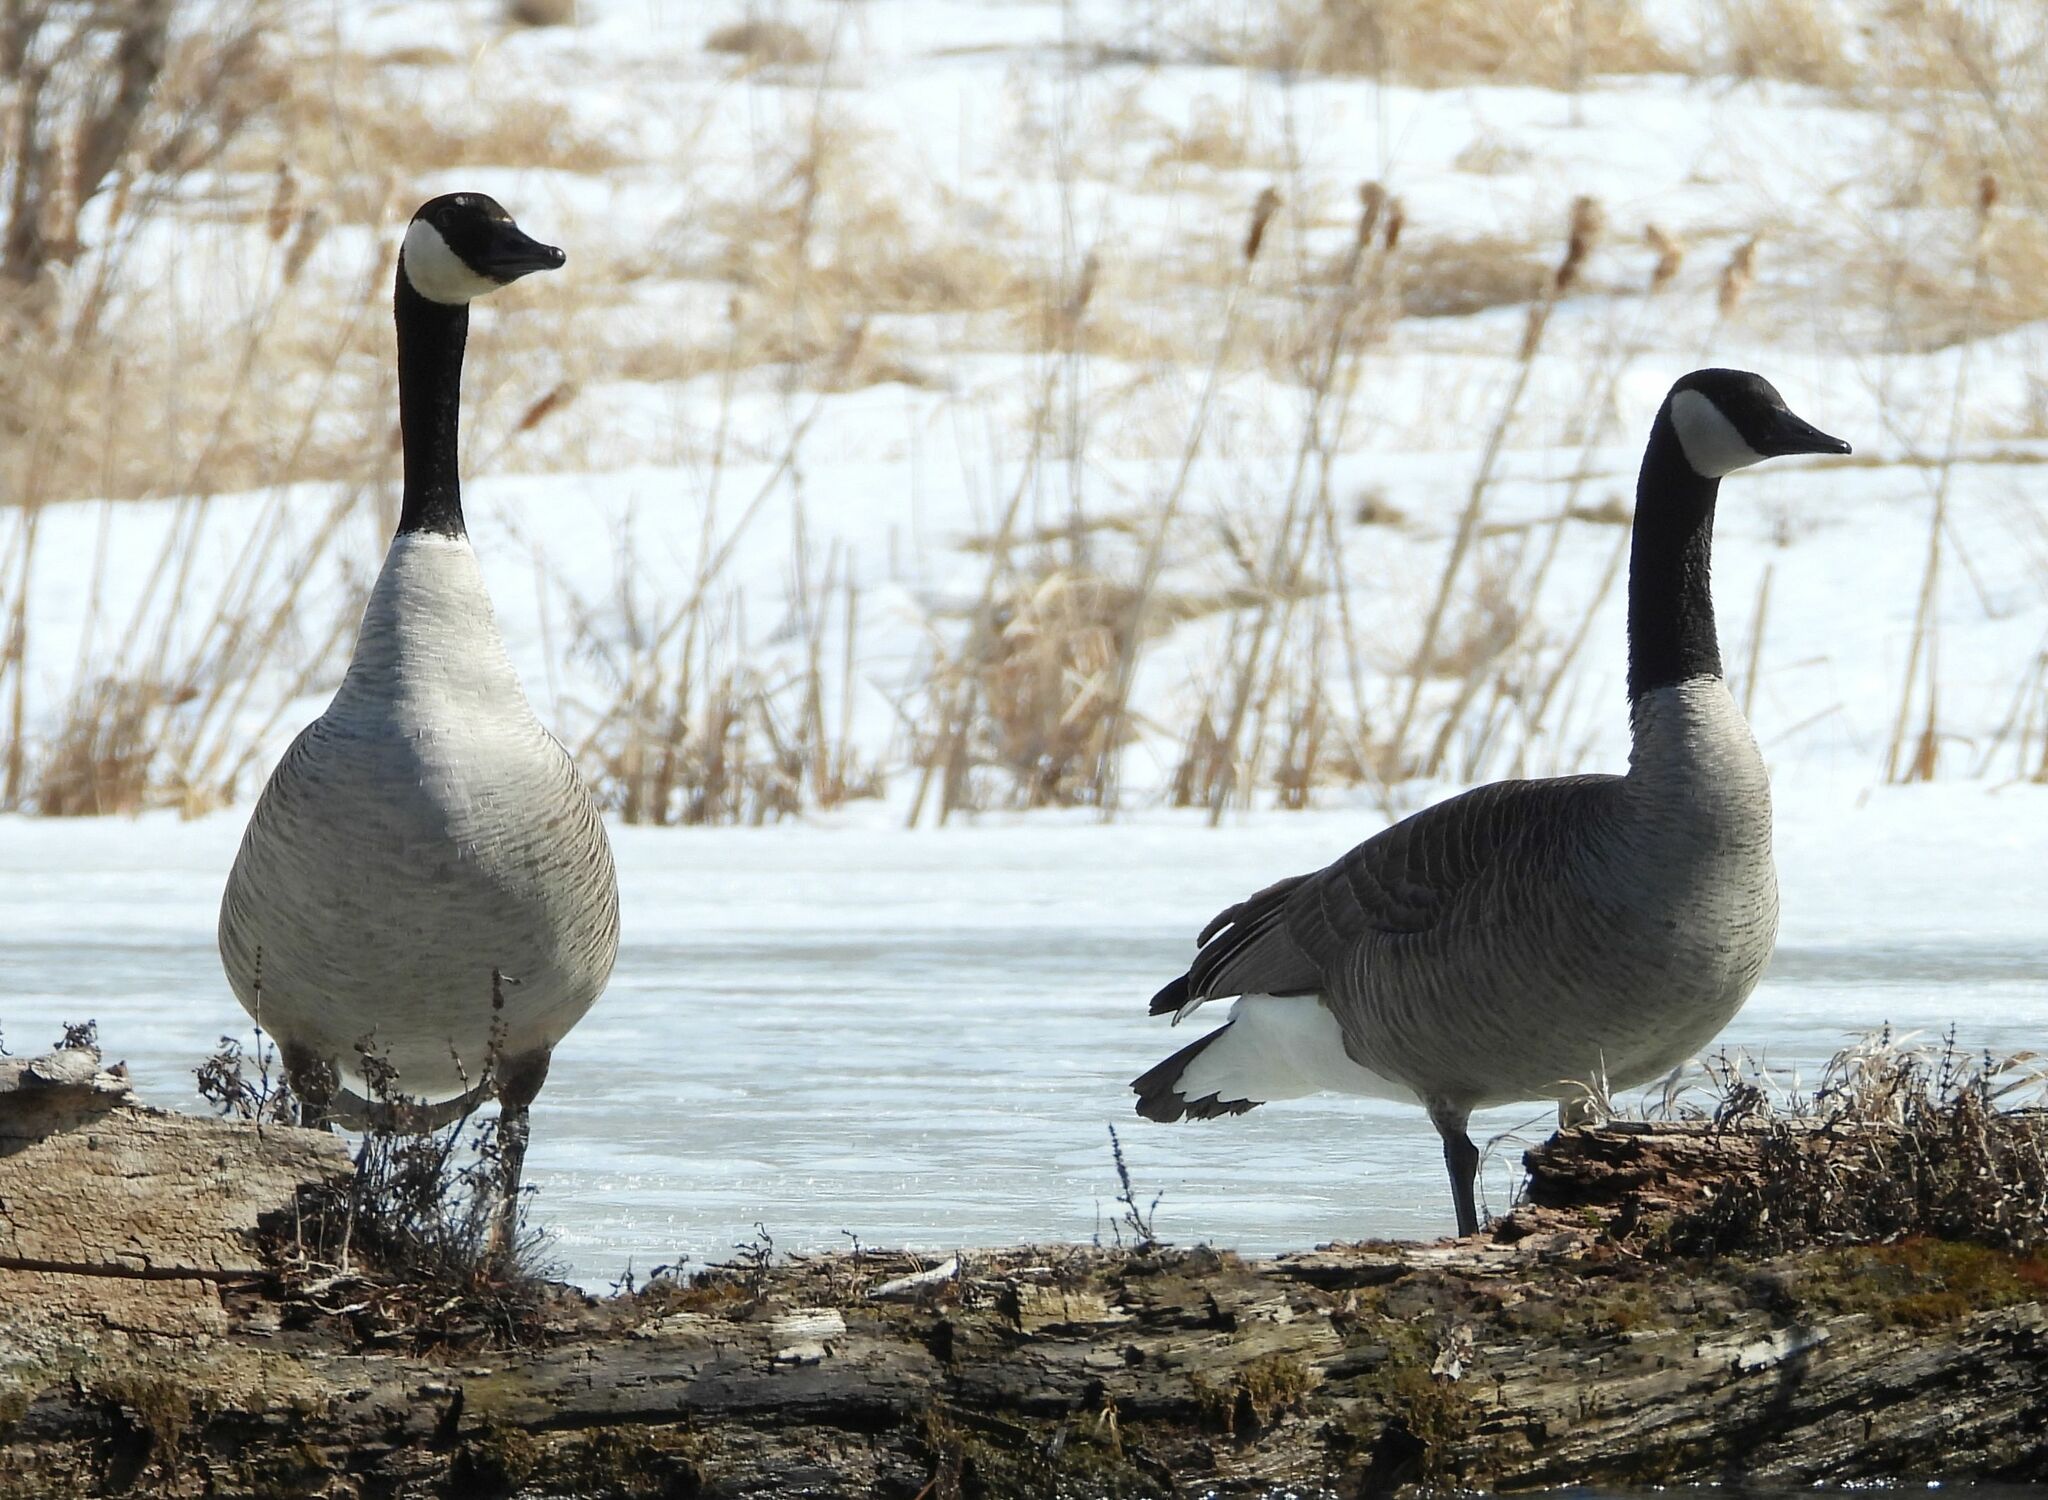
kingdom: Animalia
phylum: Chordata
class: Aves
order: Anseriformes
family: Anatidae
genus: Branta
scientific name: Branta canadensis
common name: Canada goose
